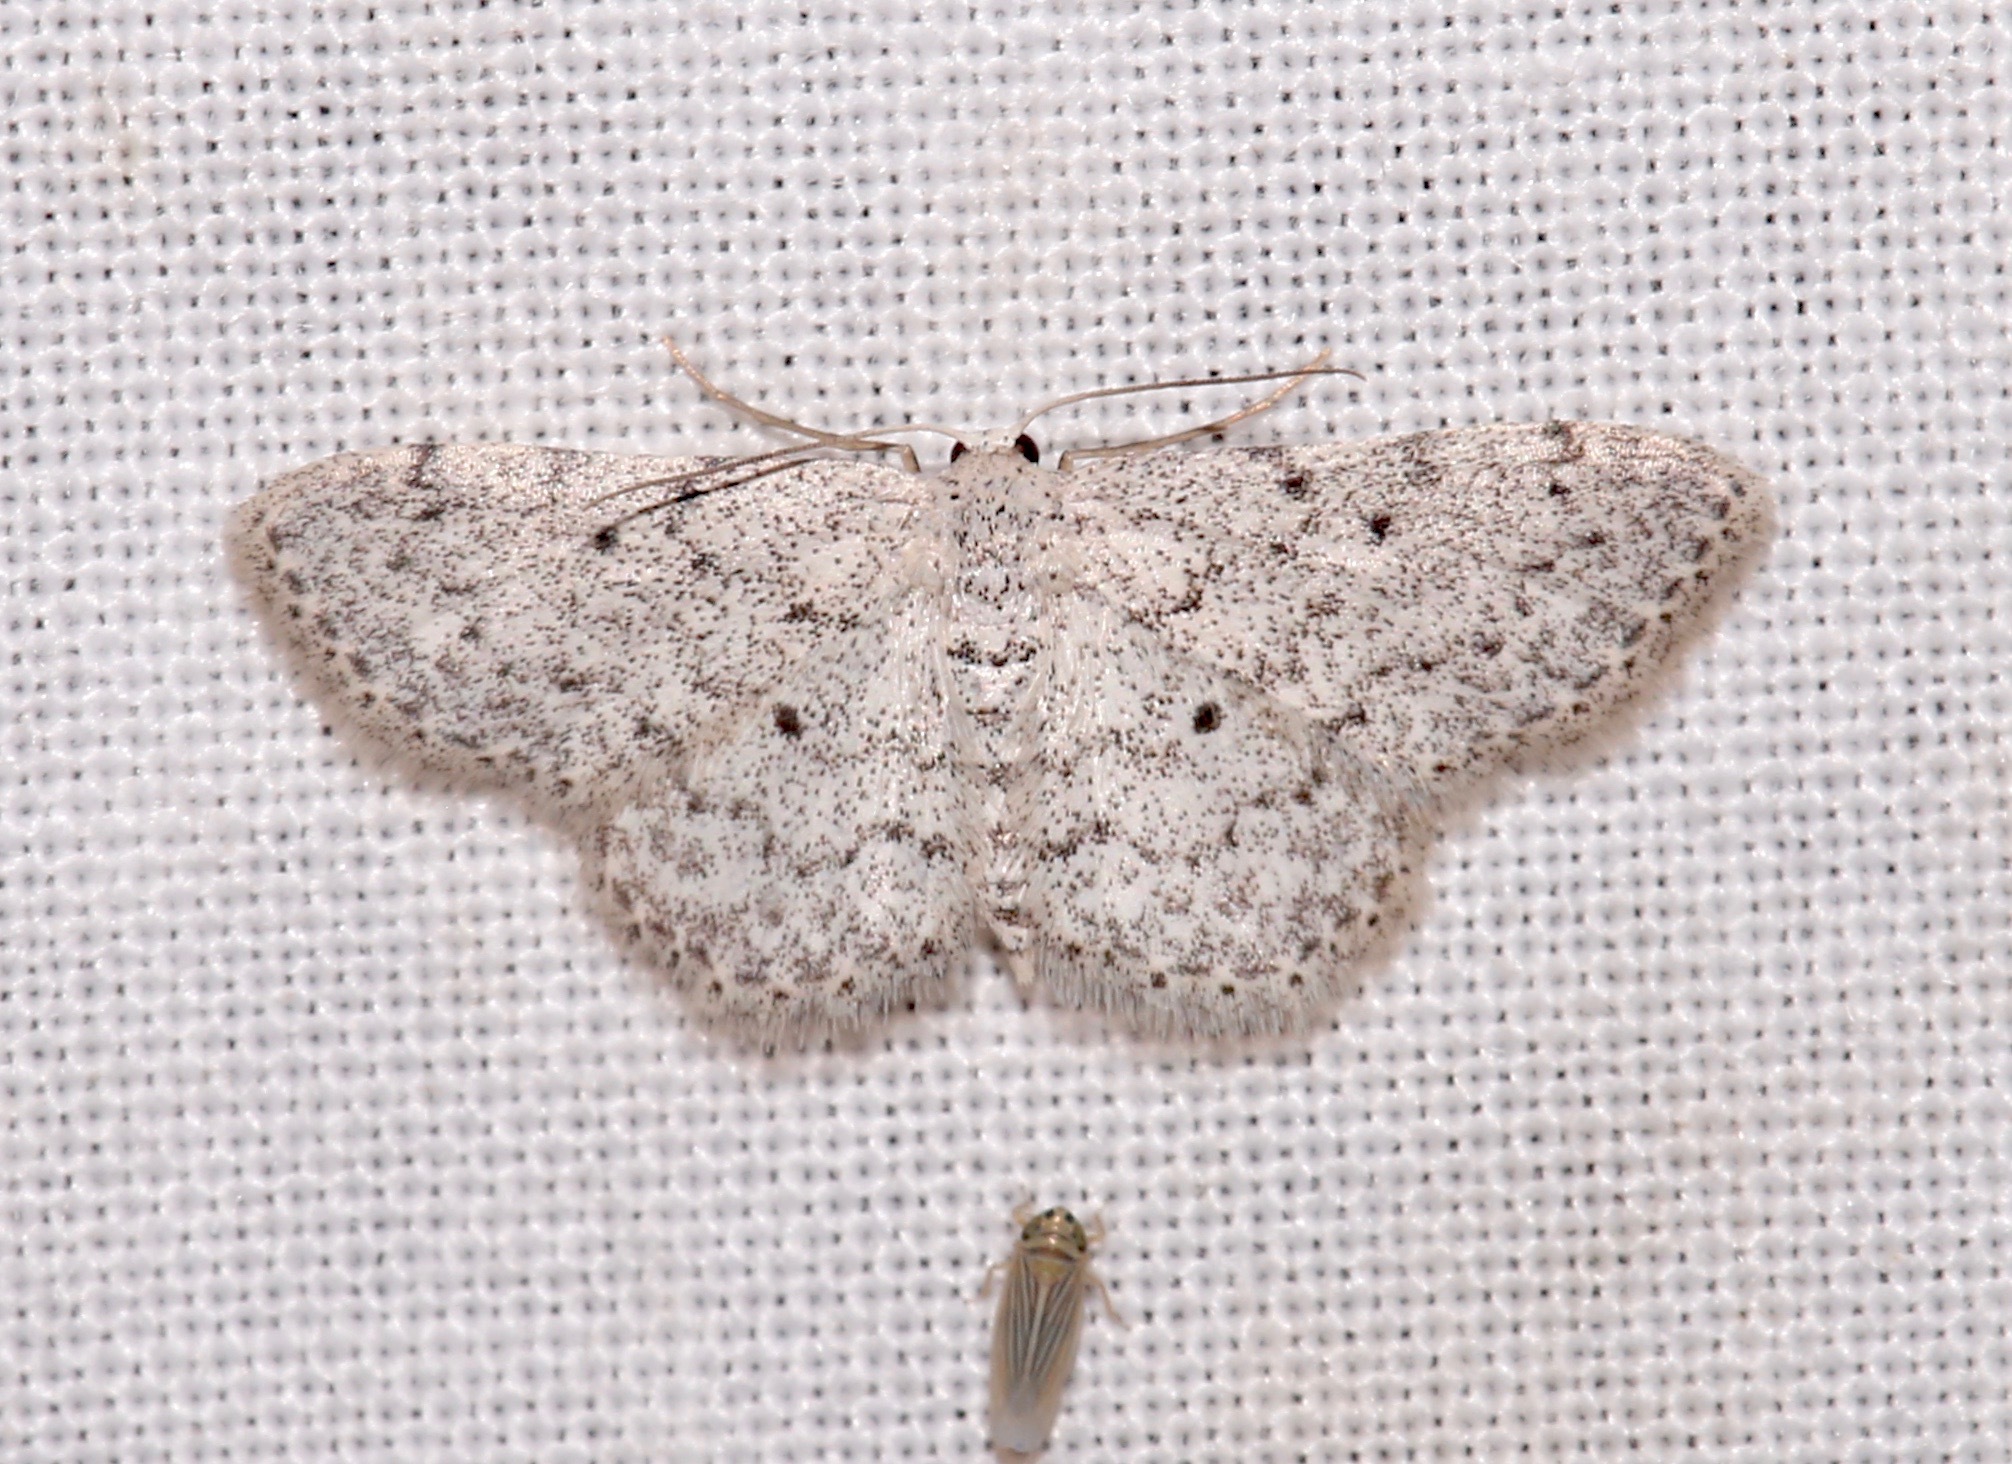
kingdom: Animalia
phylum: Arthropoda
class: Insecta
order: Lepidoptera
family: Geometridae
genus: Idaea
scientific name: Idaea ostentaria
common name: Showy wave moth
